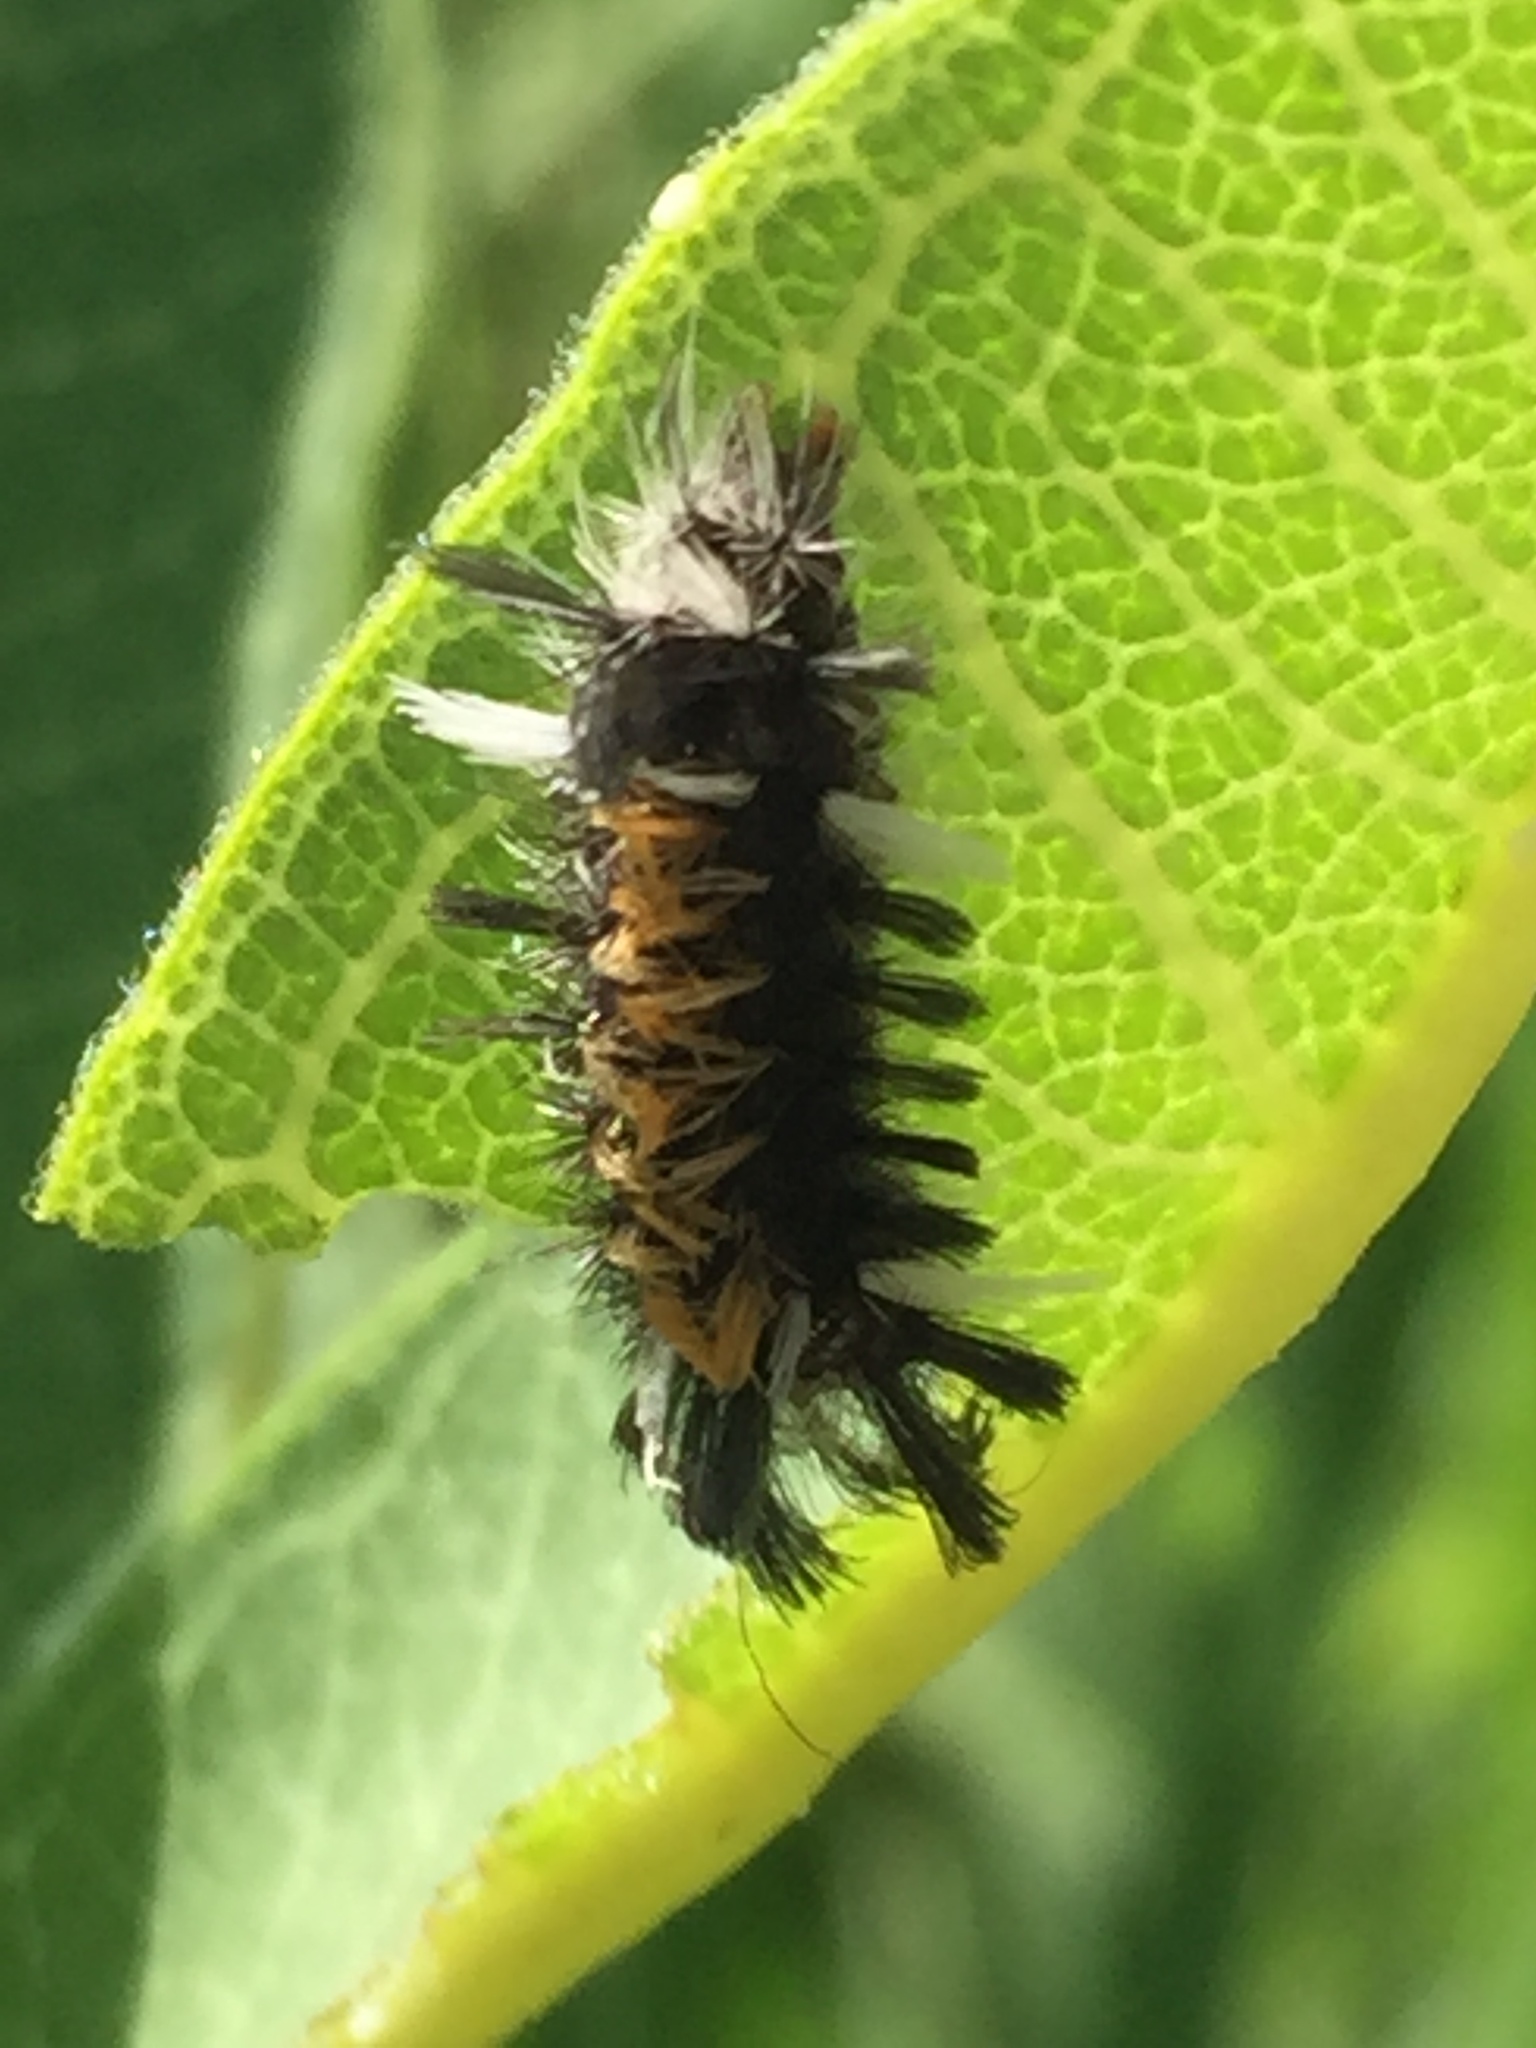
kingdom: Animalia
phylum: Arthropoda
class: Insecta
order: Lepidoptera
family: Erebidae
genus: Euchaetes
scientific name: Euchaetes egle
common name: Milkweed tussock moth
